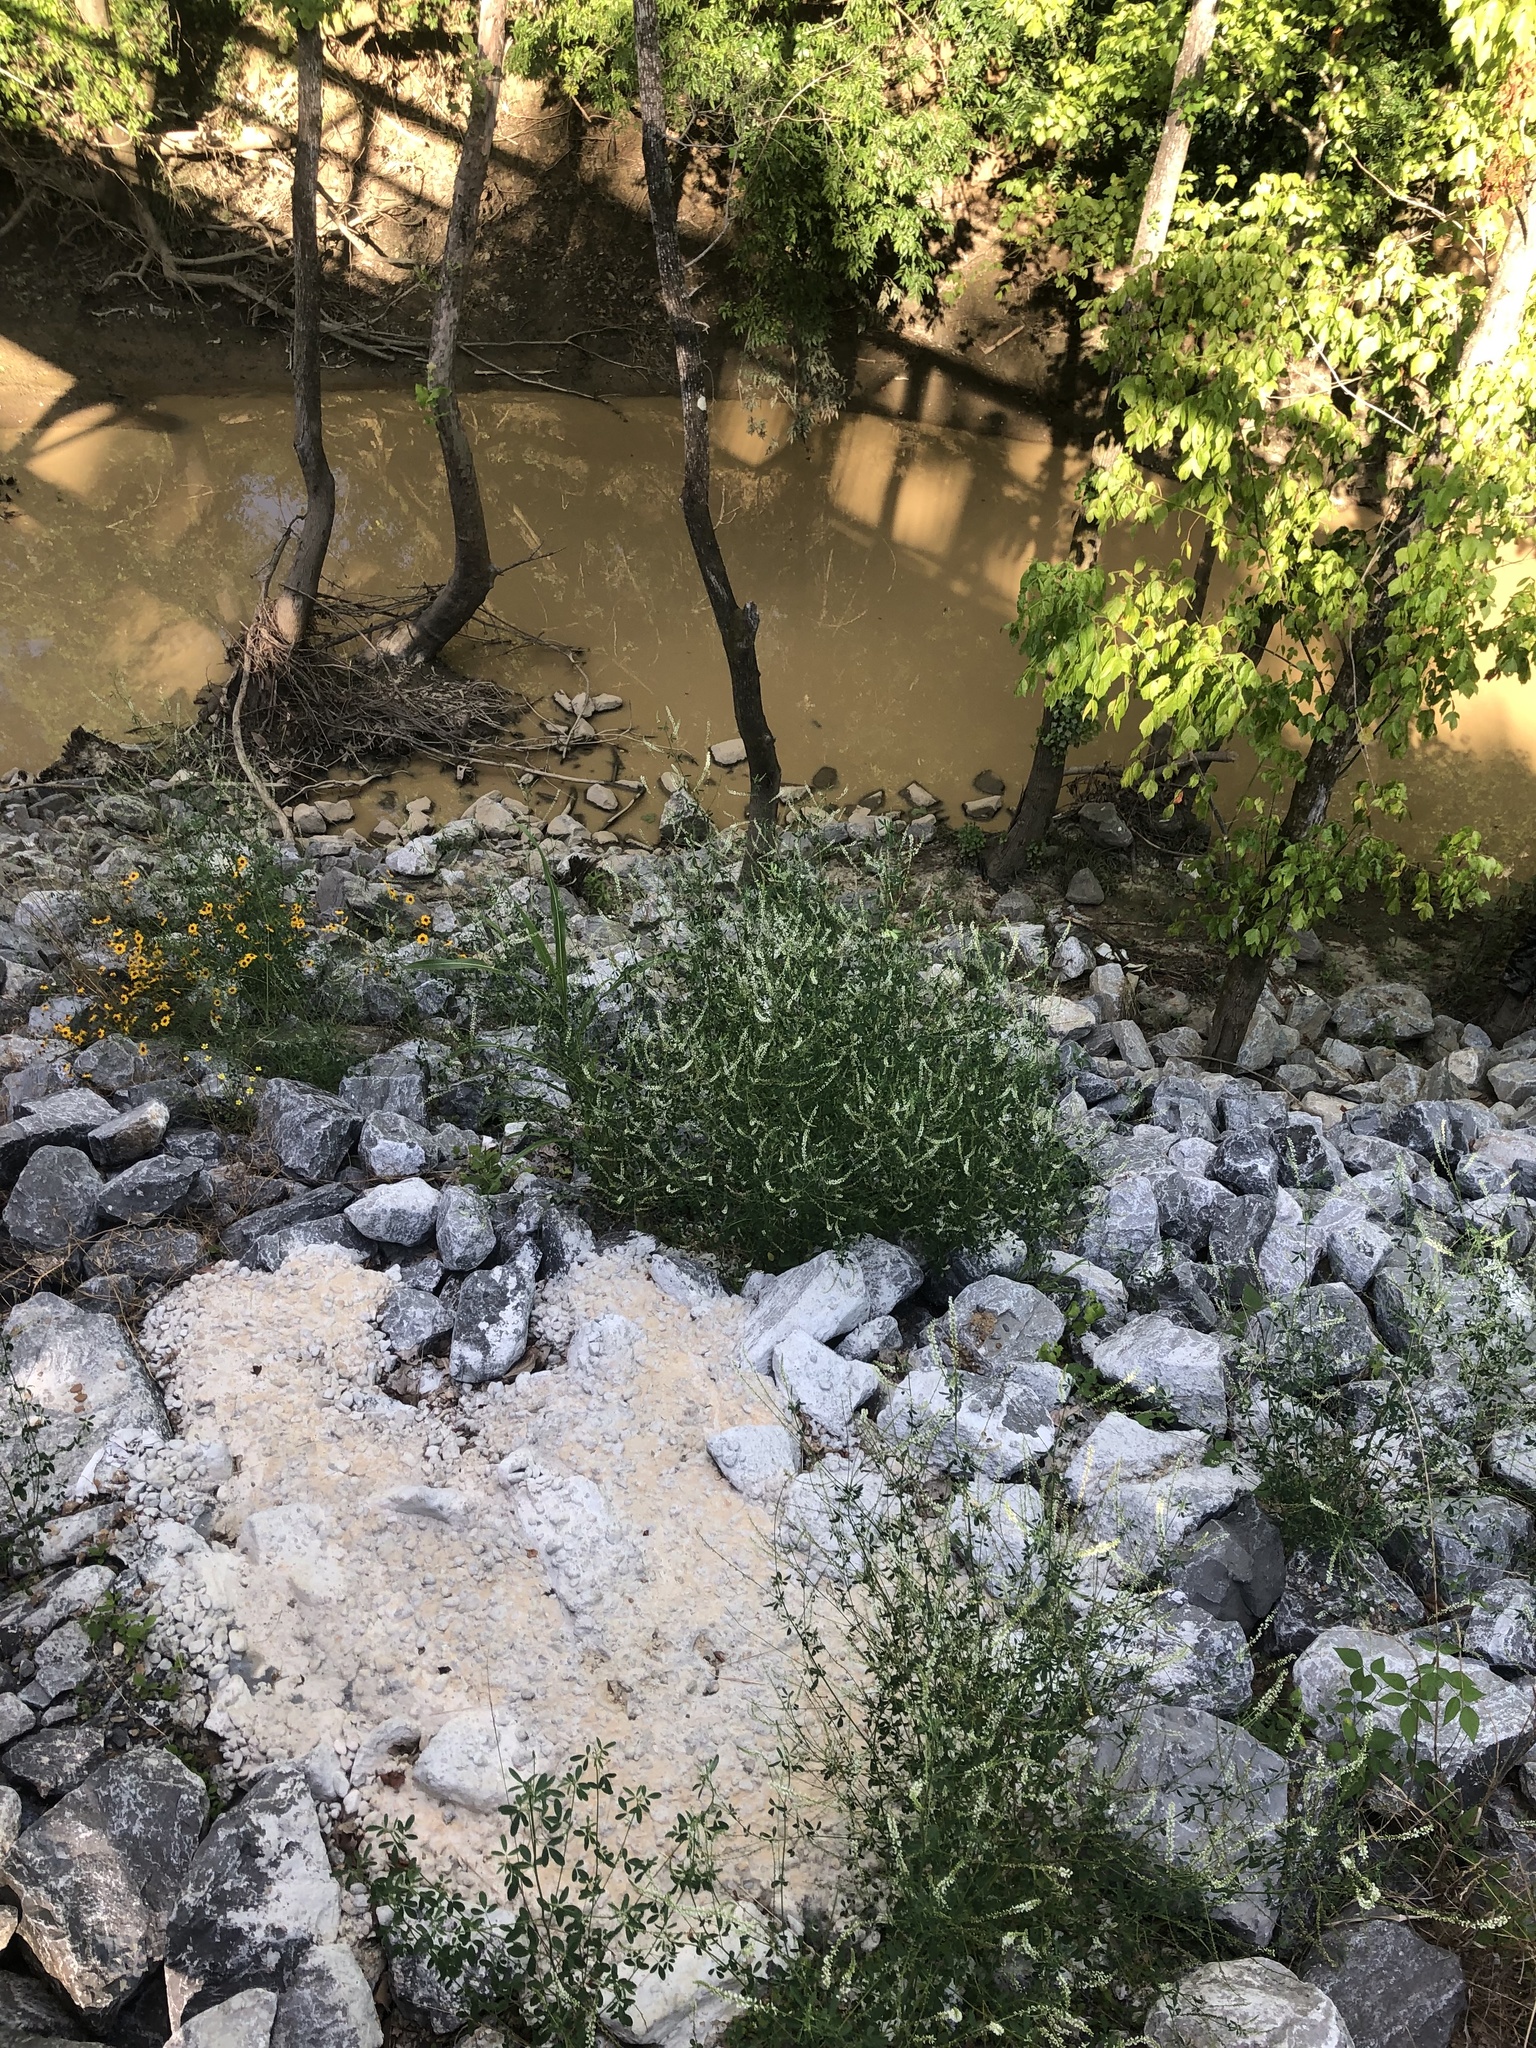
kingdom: Plantae
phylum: Tracheophyta
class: Magnoliopsida
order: Fabales
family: Fabaceae
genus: Melilotus
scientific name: Melilotus albus
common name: White melilot
